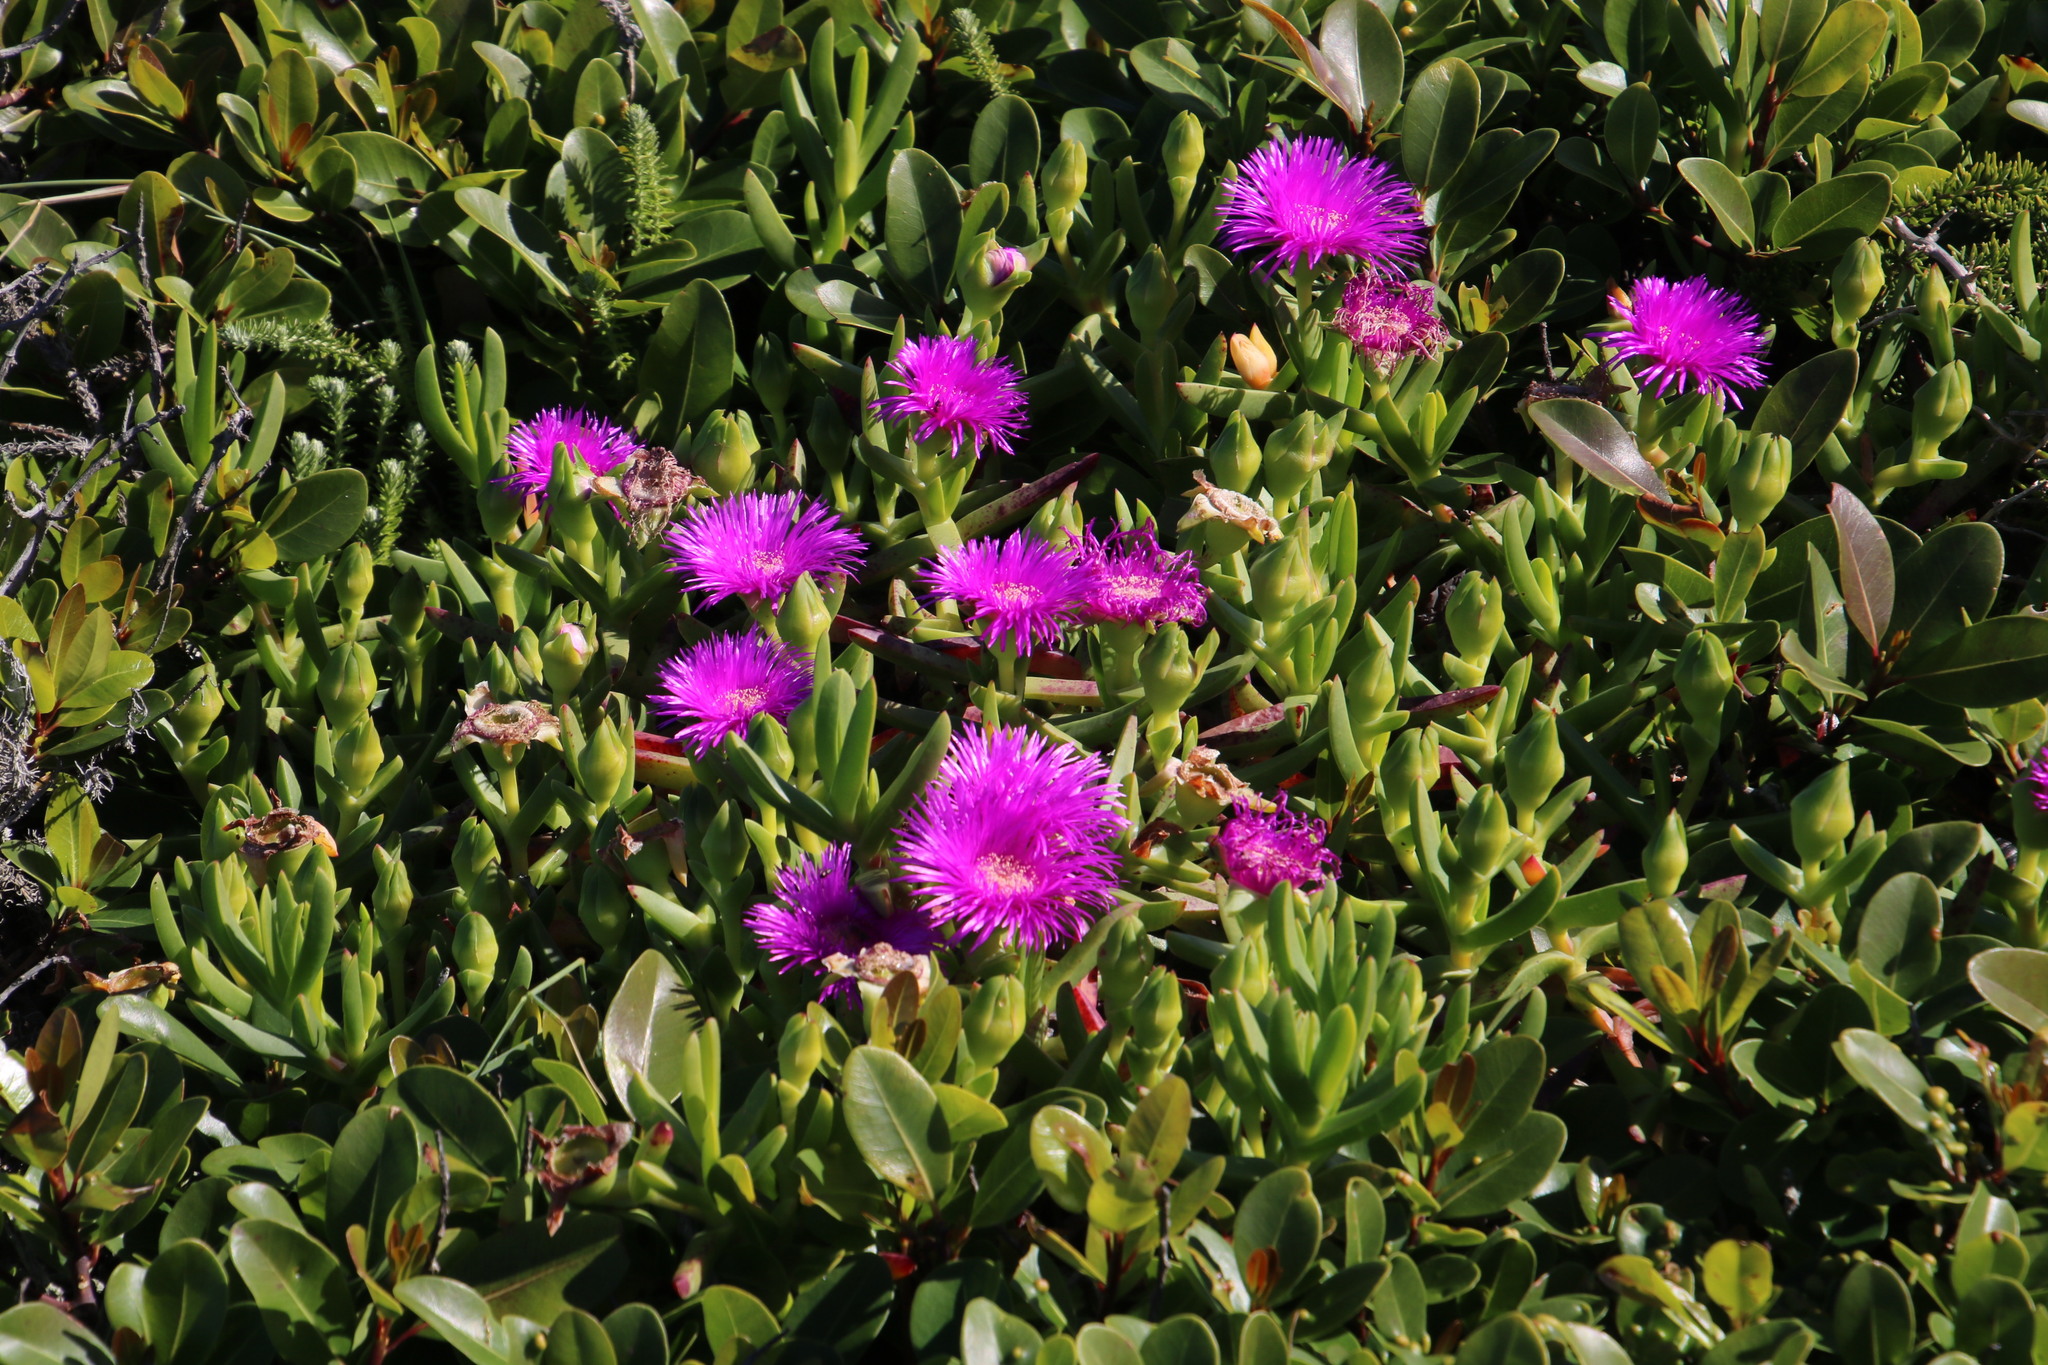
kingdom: Plantae
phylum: Tracheophyta
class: Magnoliopsida
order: Caryophyllales
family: Aizoaceae
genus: Carpobrotus
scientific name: Carpobrotus deliciosus
